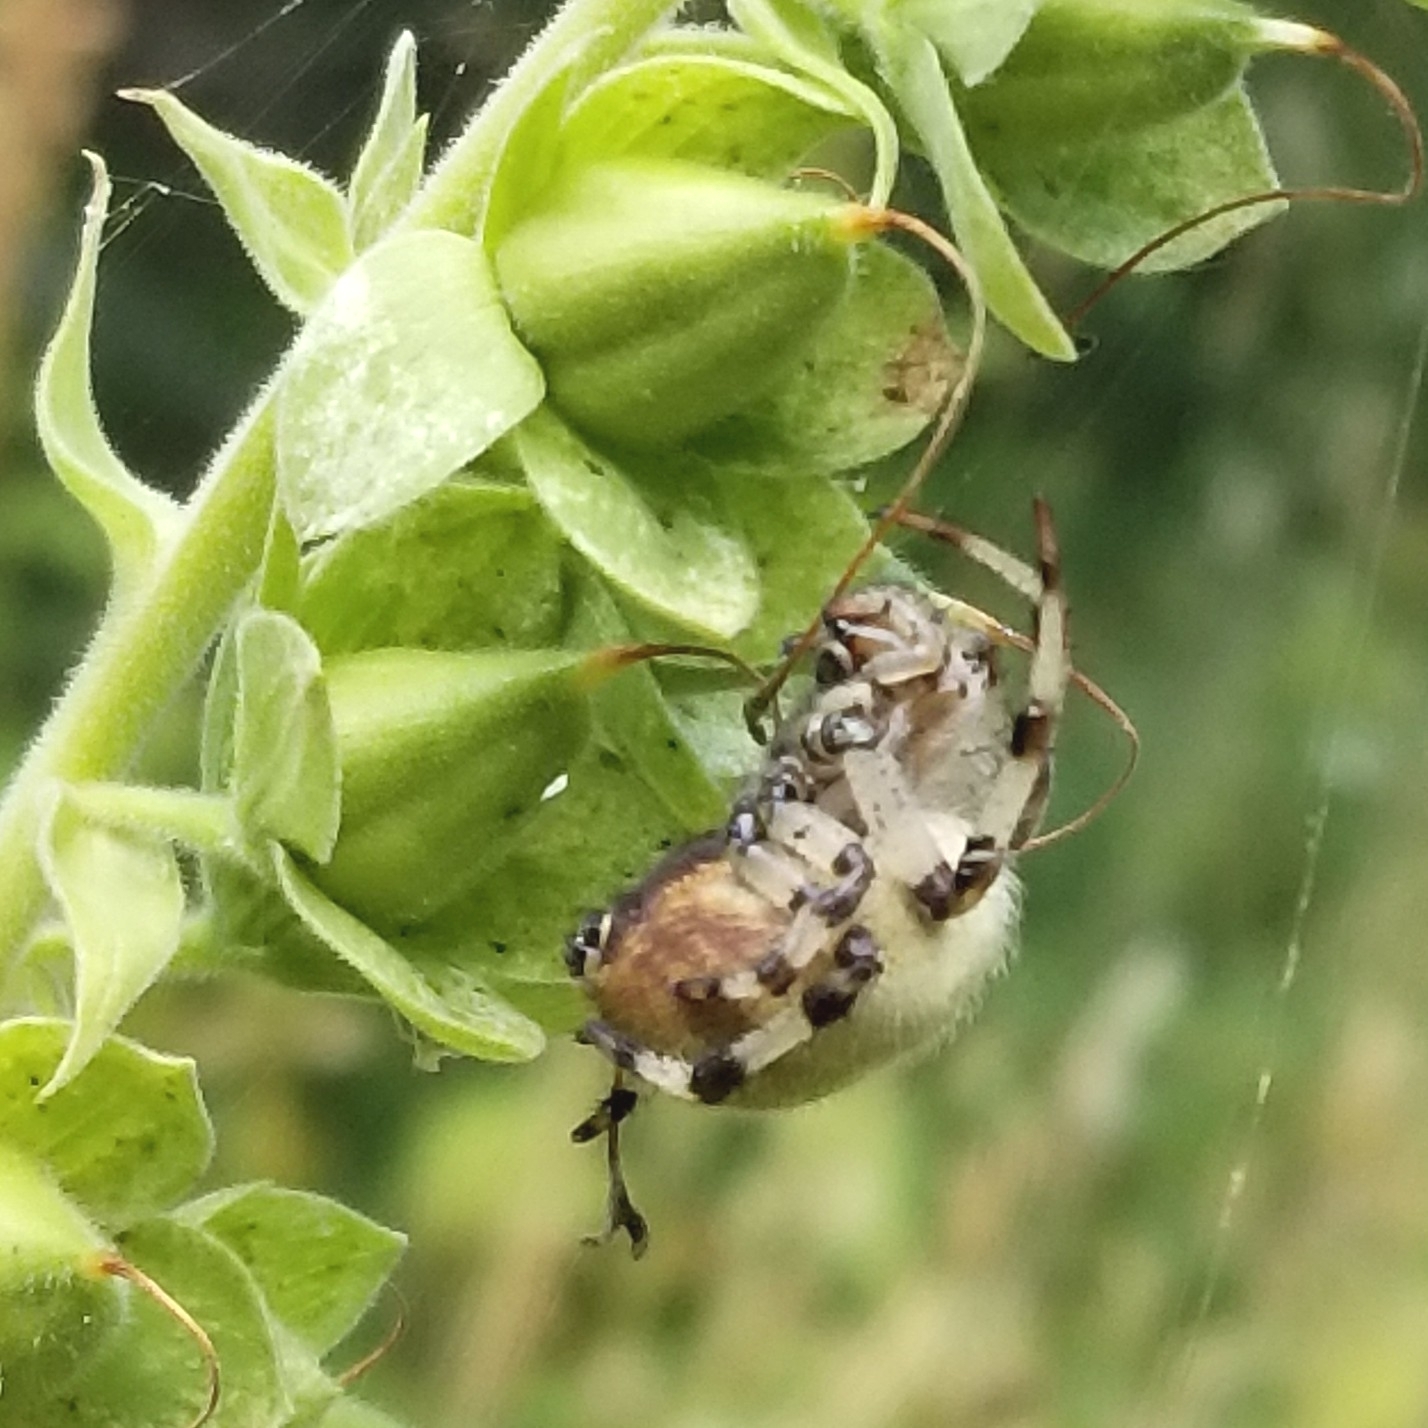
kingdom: Animalia
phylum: Arthropoda
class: Arachnida
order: Araneae
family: Araneidae
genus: Araneus
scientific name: Araneus trifolium
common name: Shamrock orbweaver
